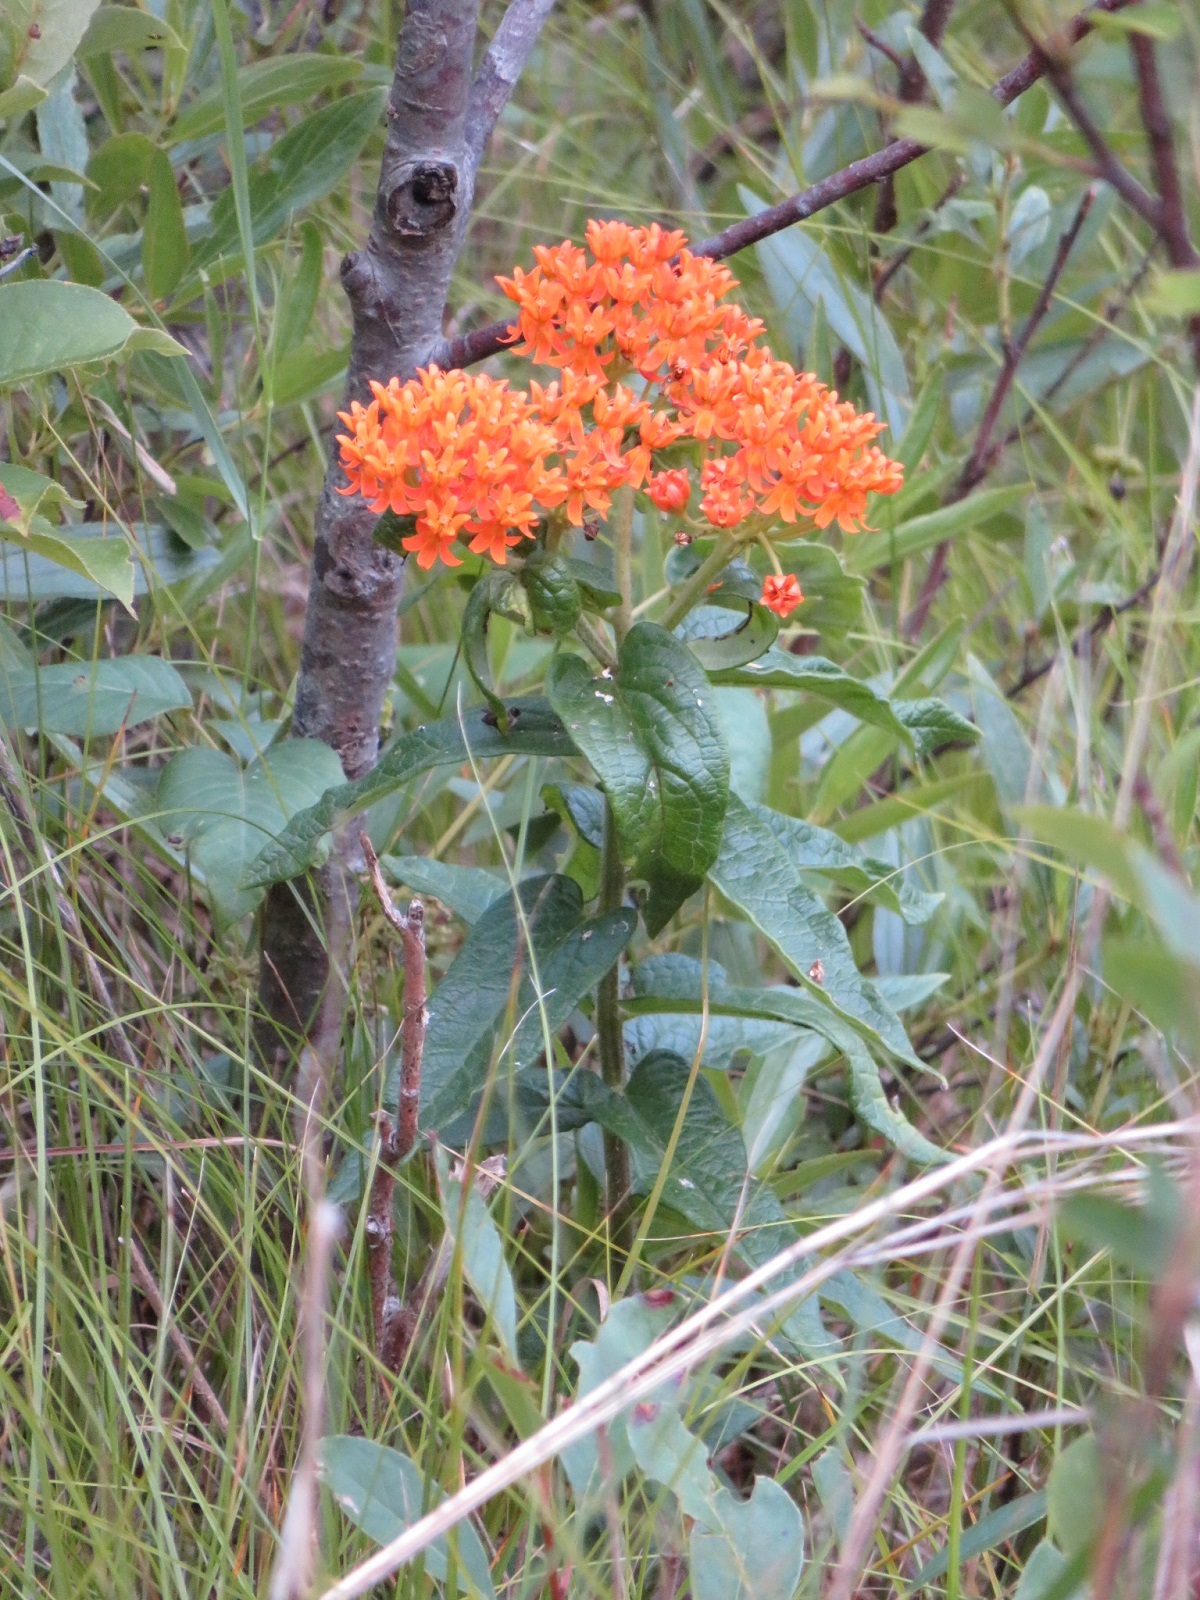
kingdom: Plantae
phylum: Tracheophyta
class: Magnoliopsida
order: Gentianales
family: Apocynaceae
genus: Asclepias
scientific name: Asclepias tuberosa
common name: Butterfly milkweed
